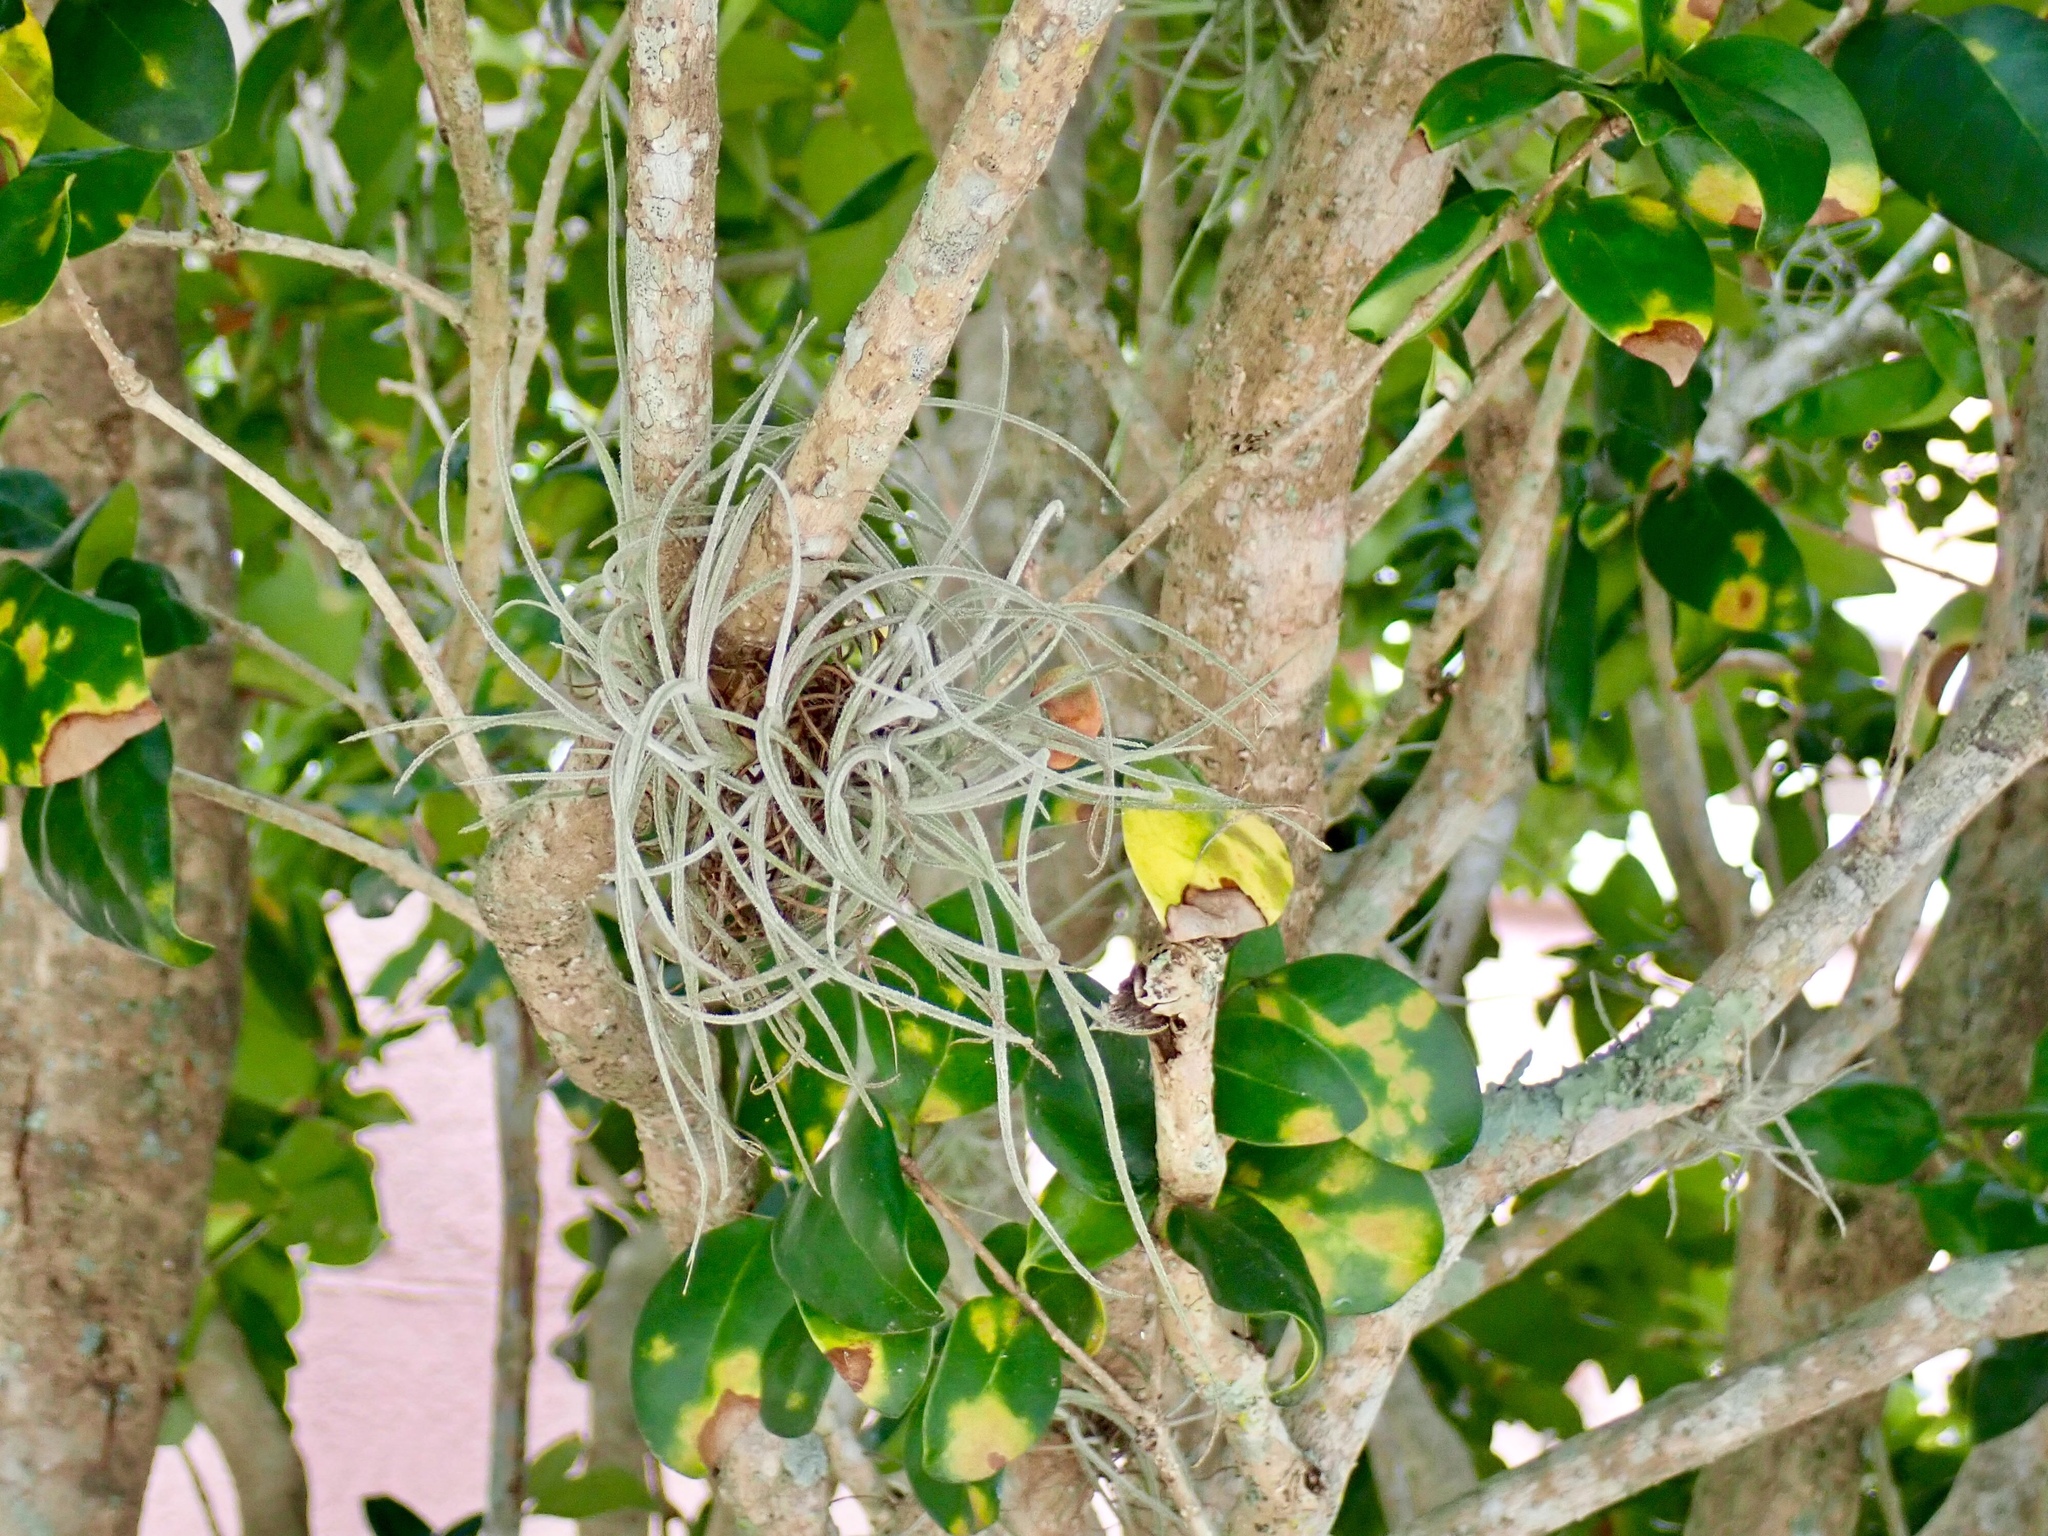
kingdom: Plantae
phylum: Tracheophyta
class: Liliopsida
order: Poales
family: Bromeliaceae
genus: Tillandsia
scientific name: Tillandsia recurvata
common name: Small ballmoss
